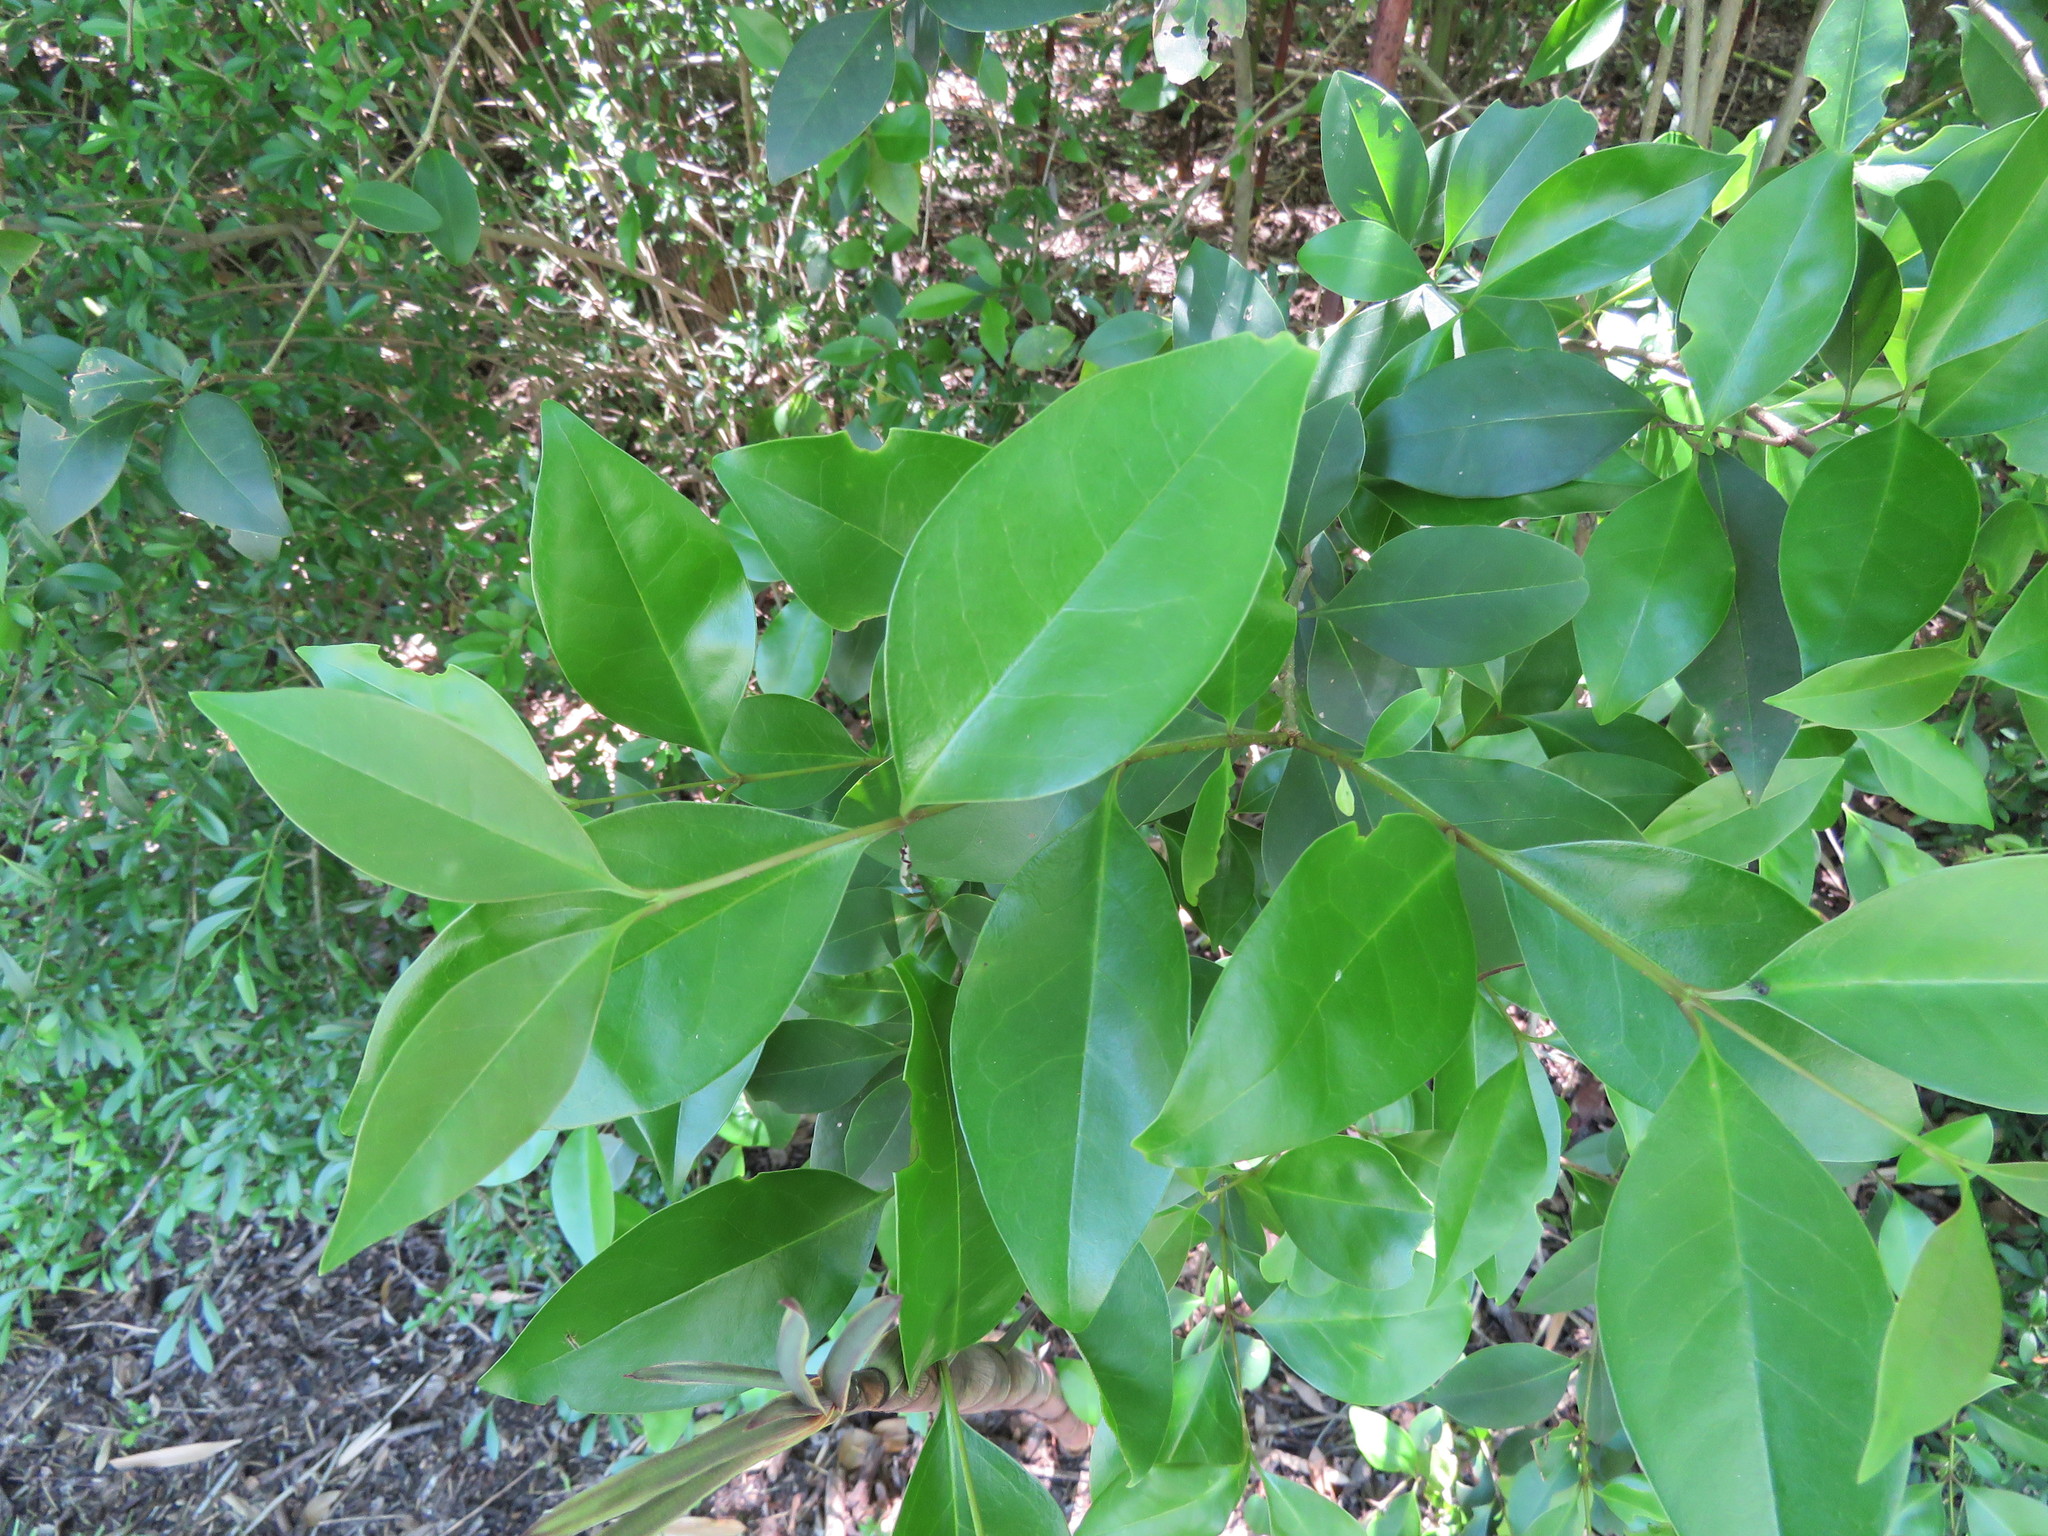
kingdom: Plantae
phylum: Tracheophyta
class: Magnoliopsida
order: Lamiales
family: Oleaceae
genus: Ligustrum
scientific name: Ligustrum lucidum
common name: Glossy privet
